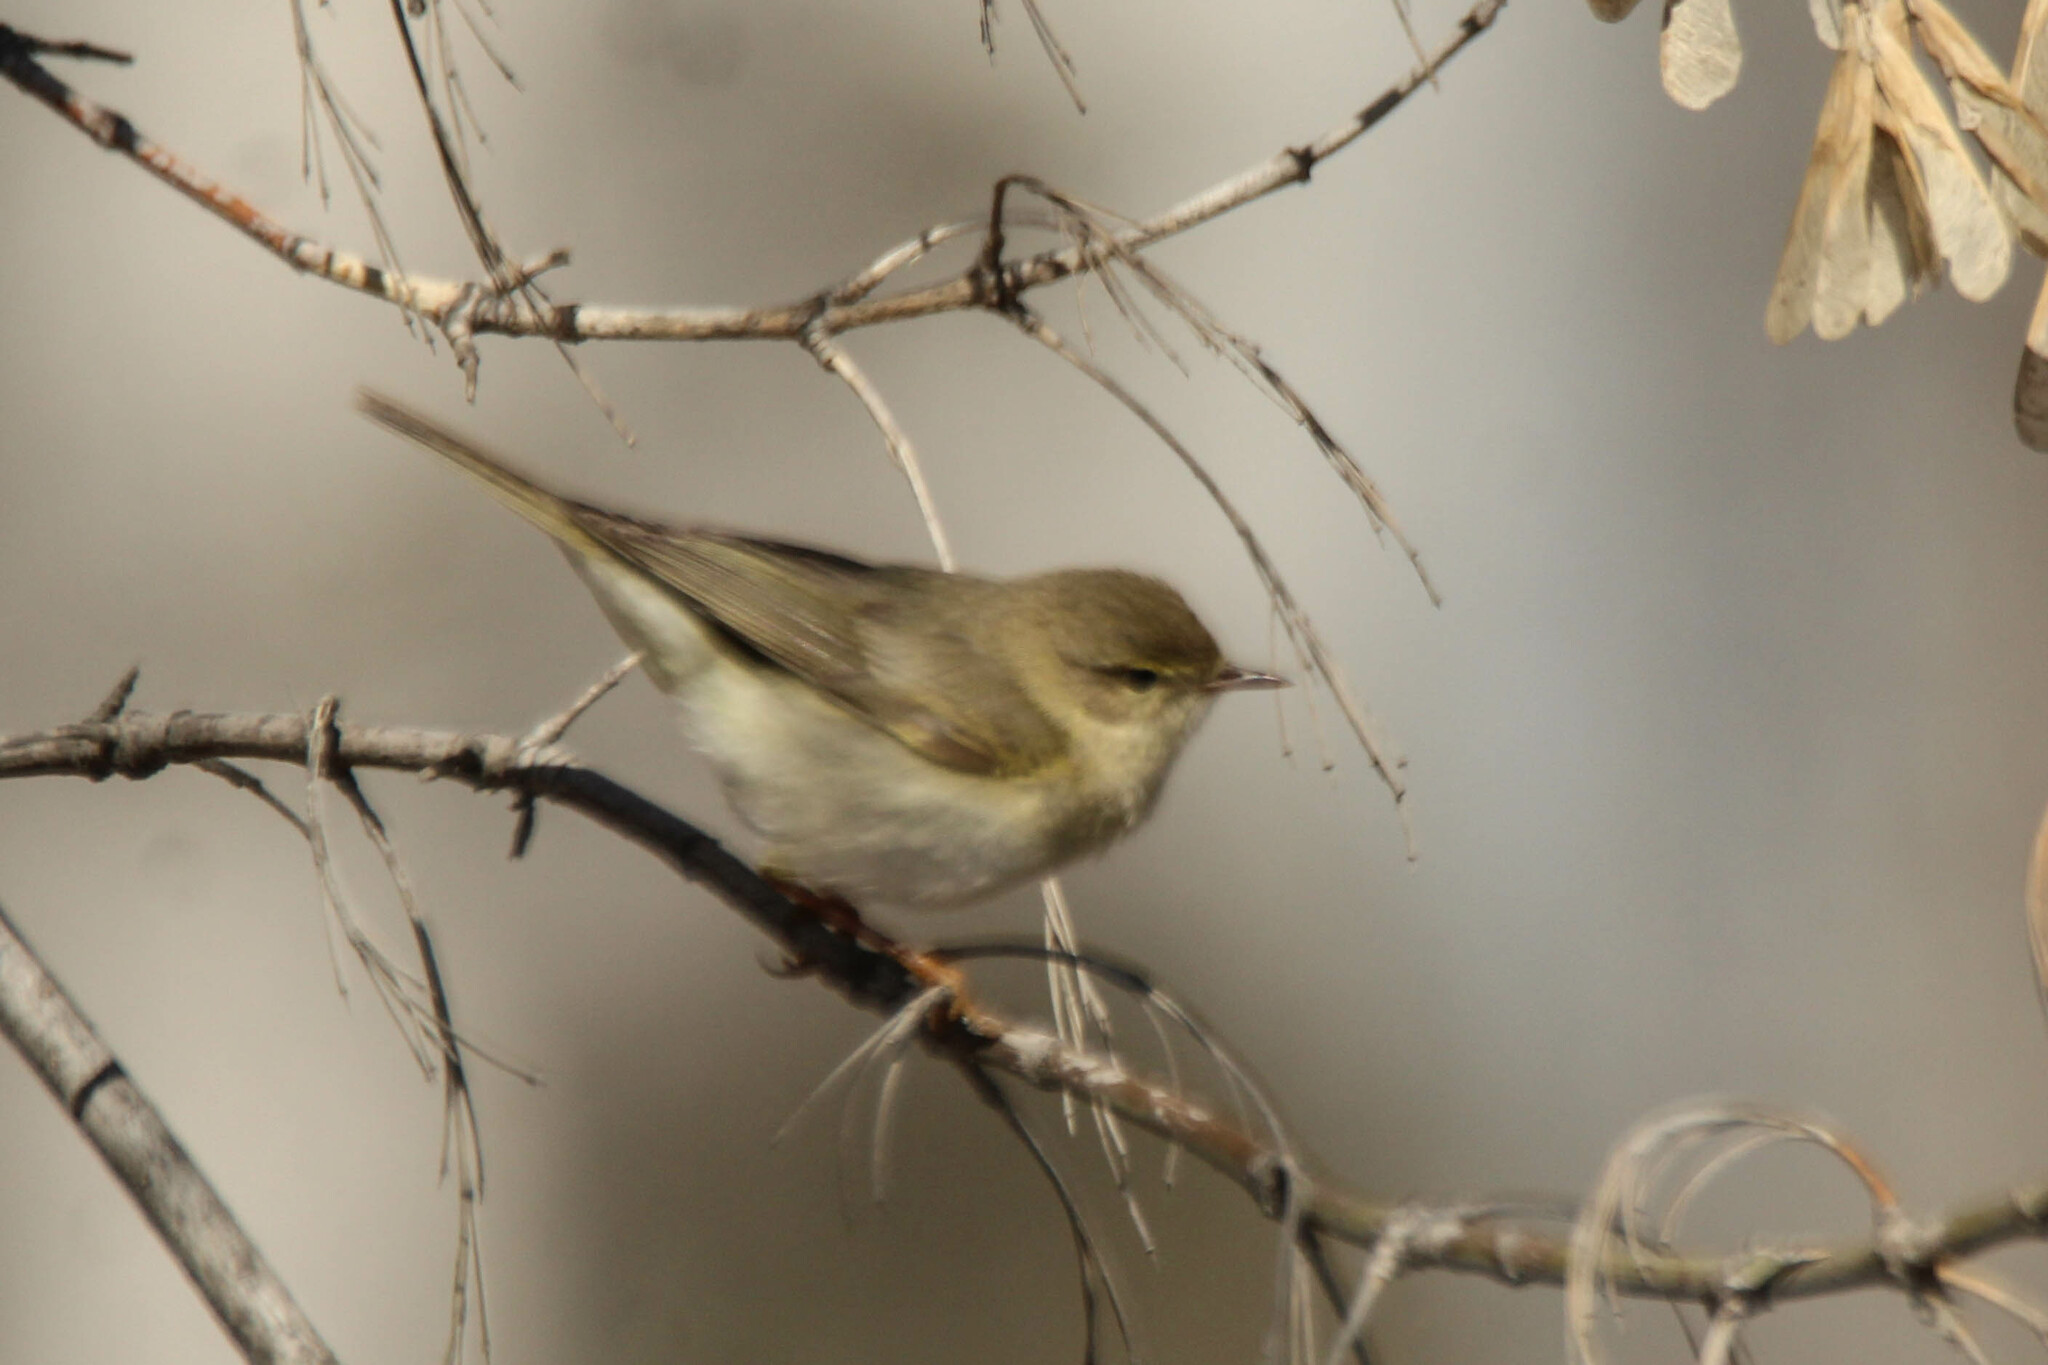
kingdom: Animalia
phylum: Chordata
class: Aves
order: Passeriformes
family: Phylloscopidae
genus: Phylloscopus
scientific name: Phylloscopus trochilus
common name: Willow warbler
